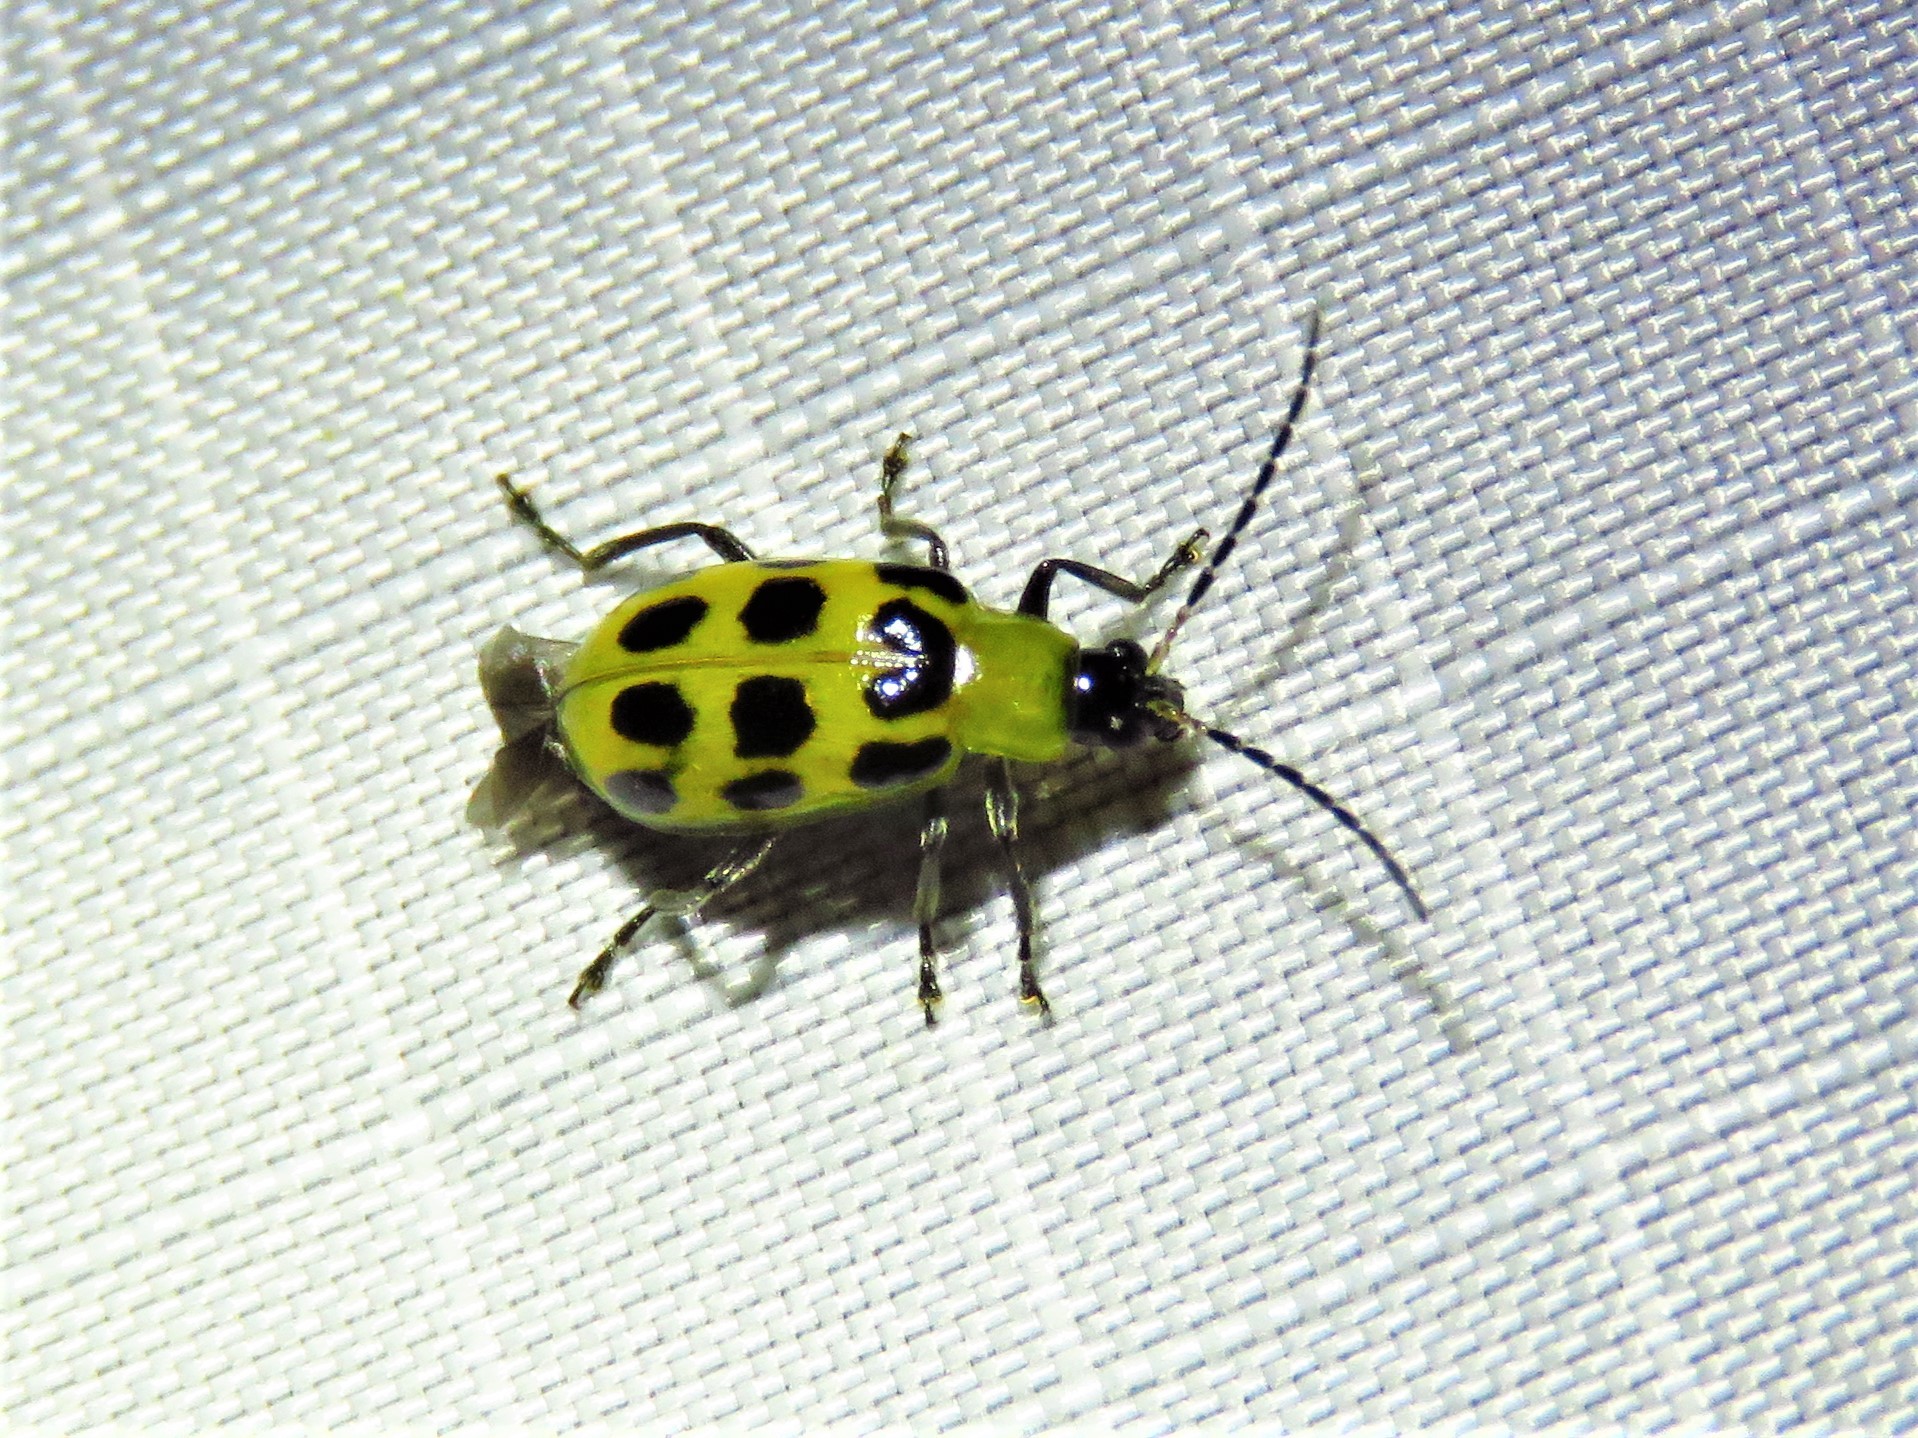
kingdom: Animalia
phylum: Arthropoda
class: Insecta
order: Coleoptera
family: Chrysomelidae
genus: Diabrotica
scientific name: Diabrotica undecimpunctata
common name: Spotted cucumber beetle
